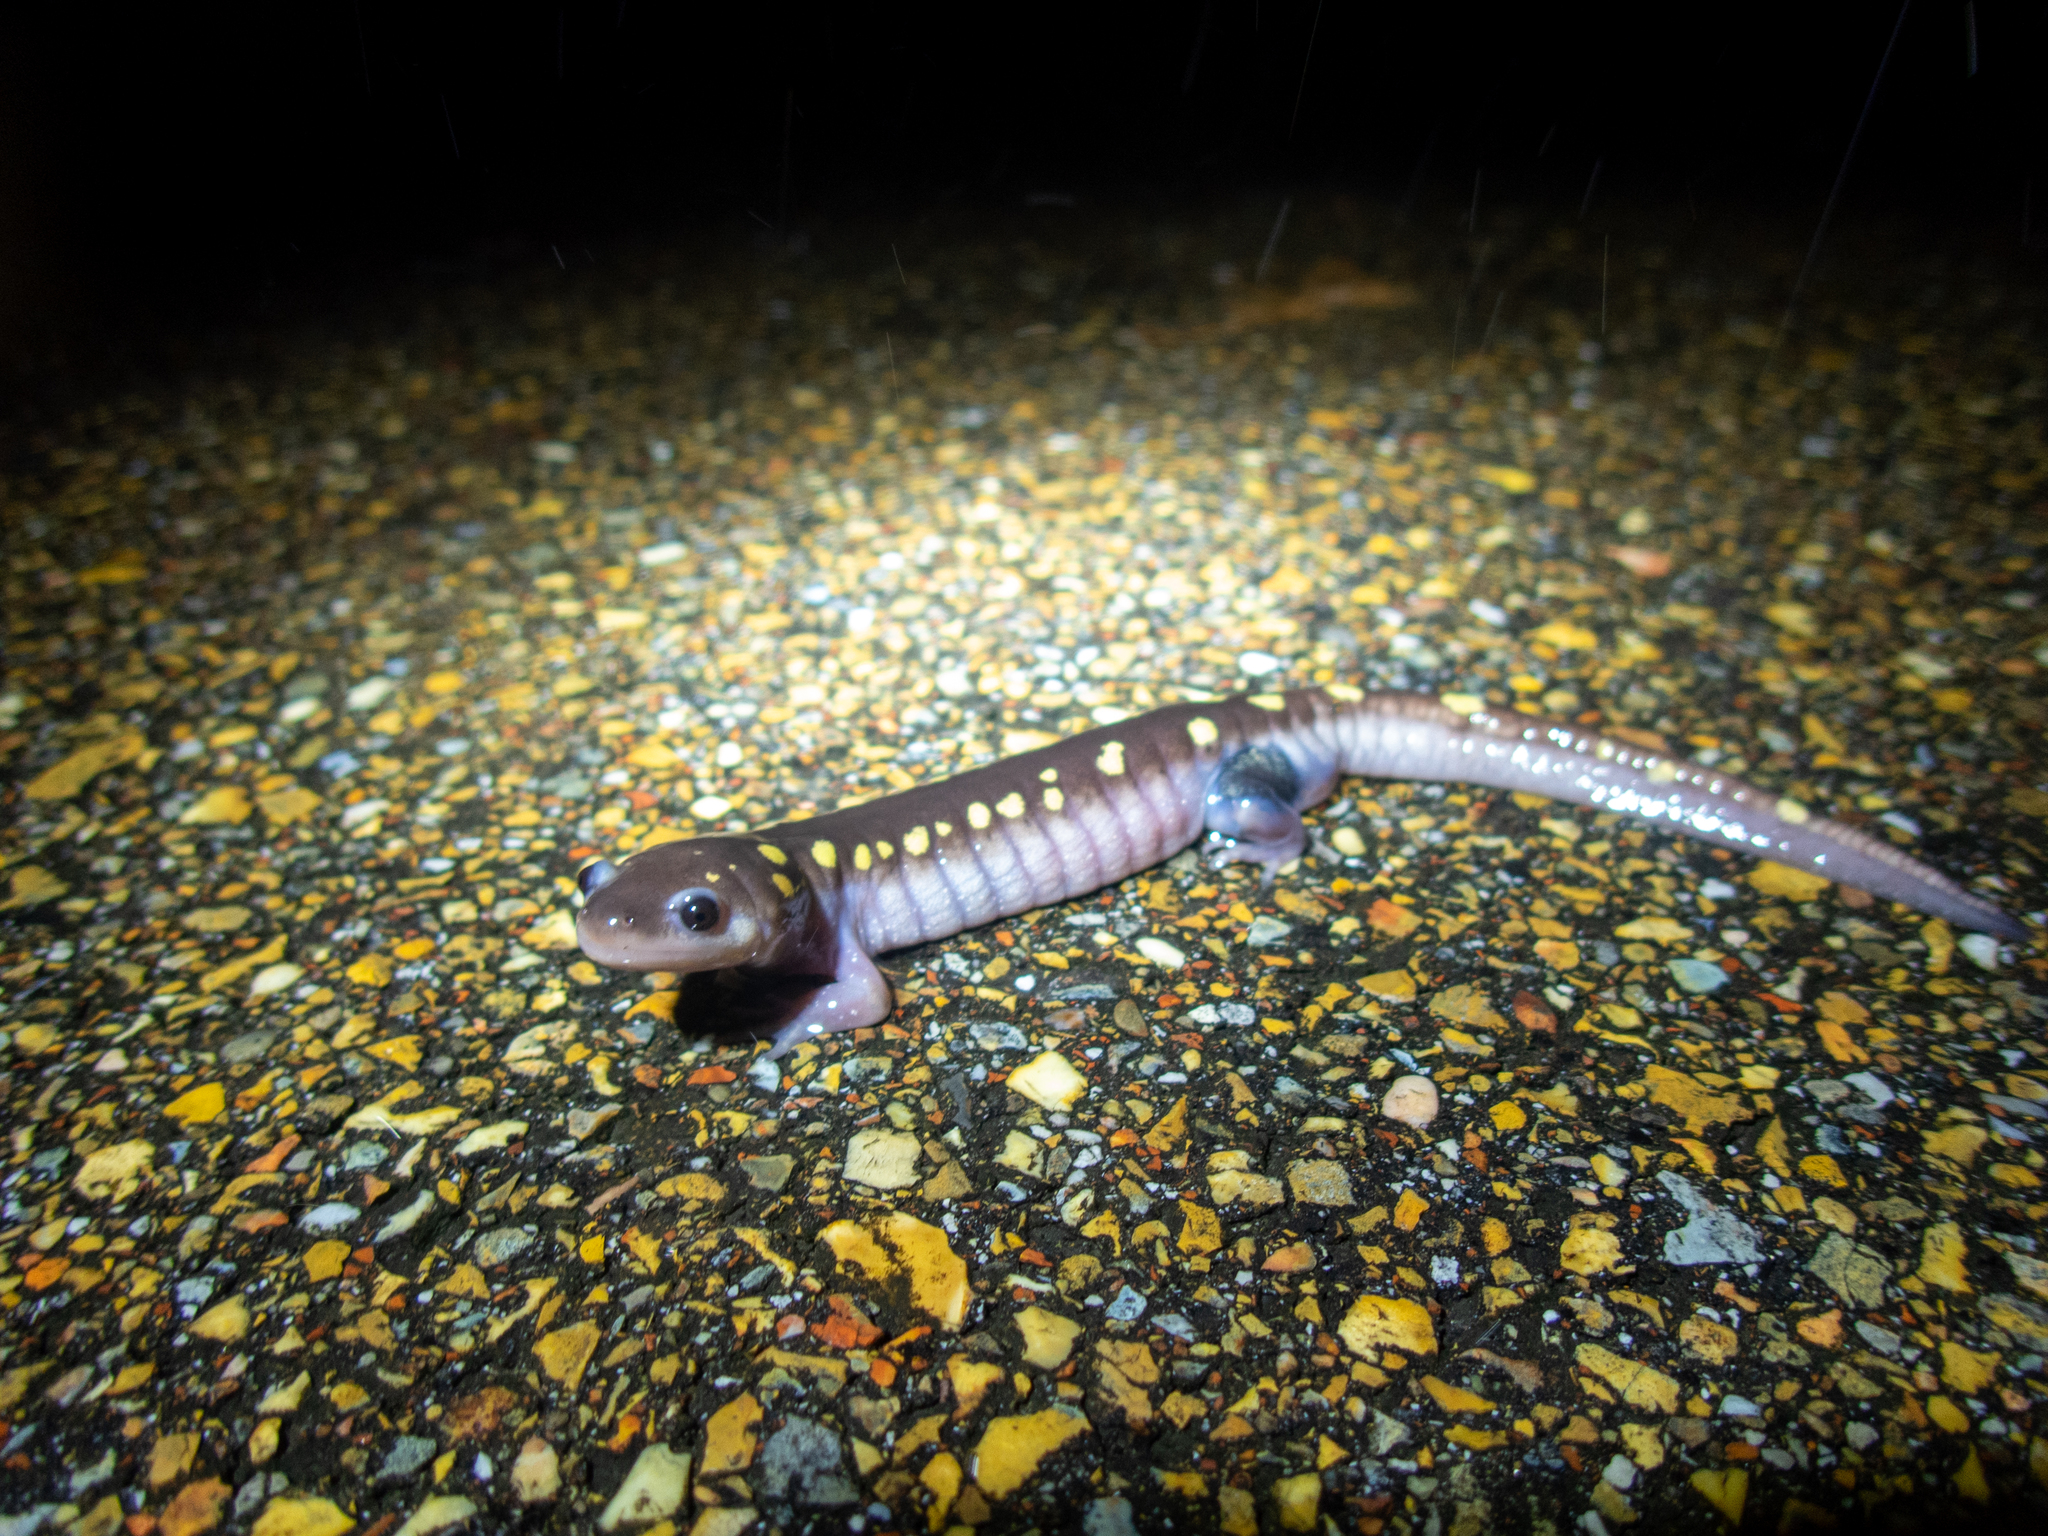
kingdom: Animalia
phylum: Chordata
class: Amphibia
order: Caudata
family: Ambystomatidae
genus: Ambystoma
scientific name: Ambystoma maculatum
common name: Spotted salamander
